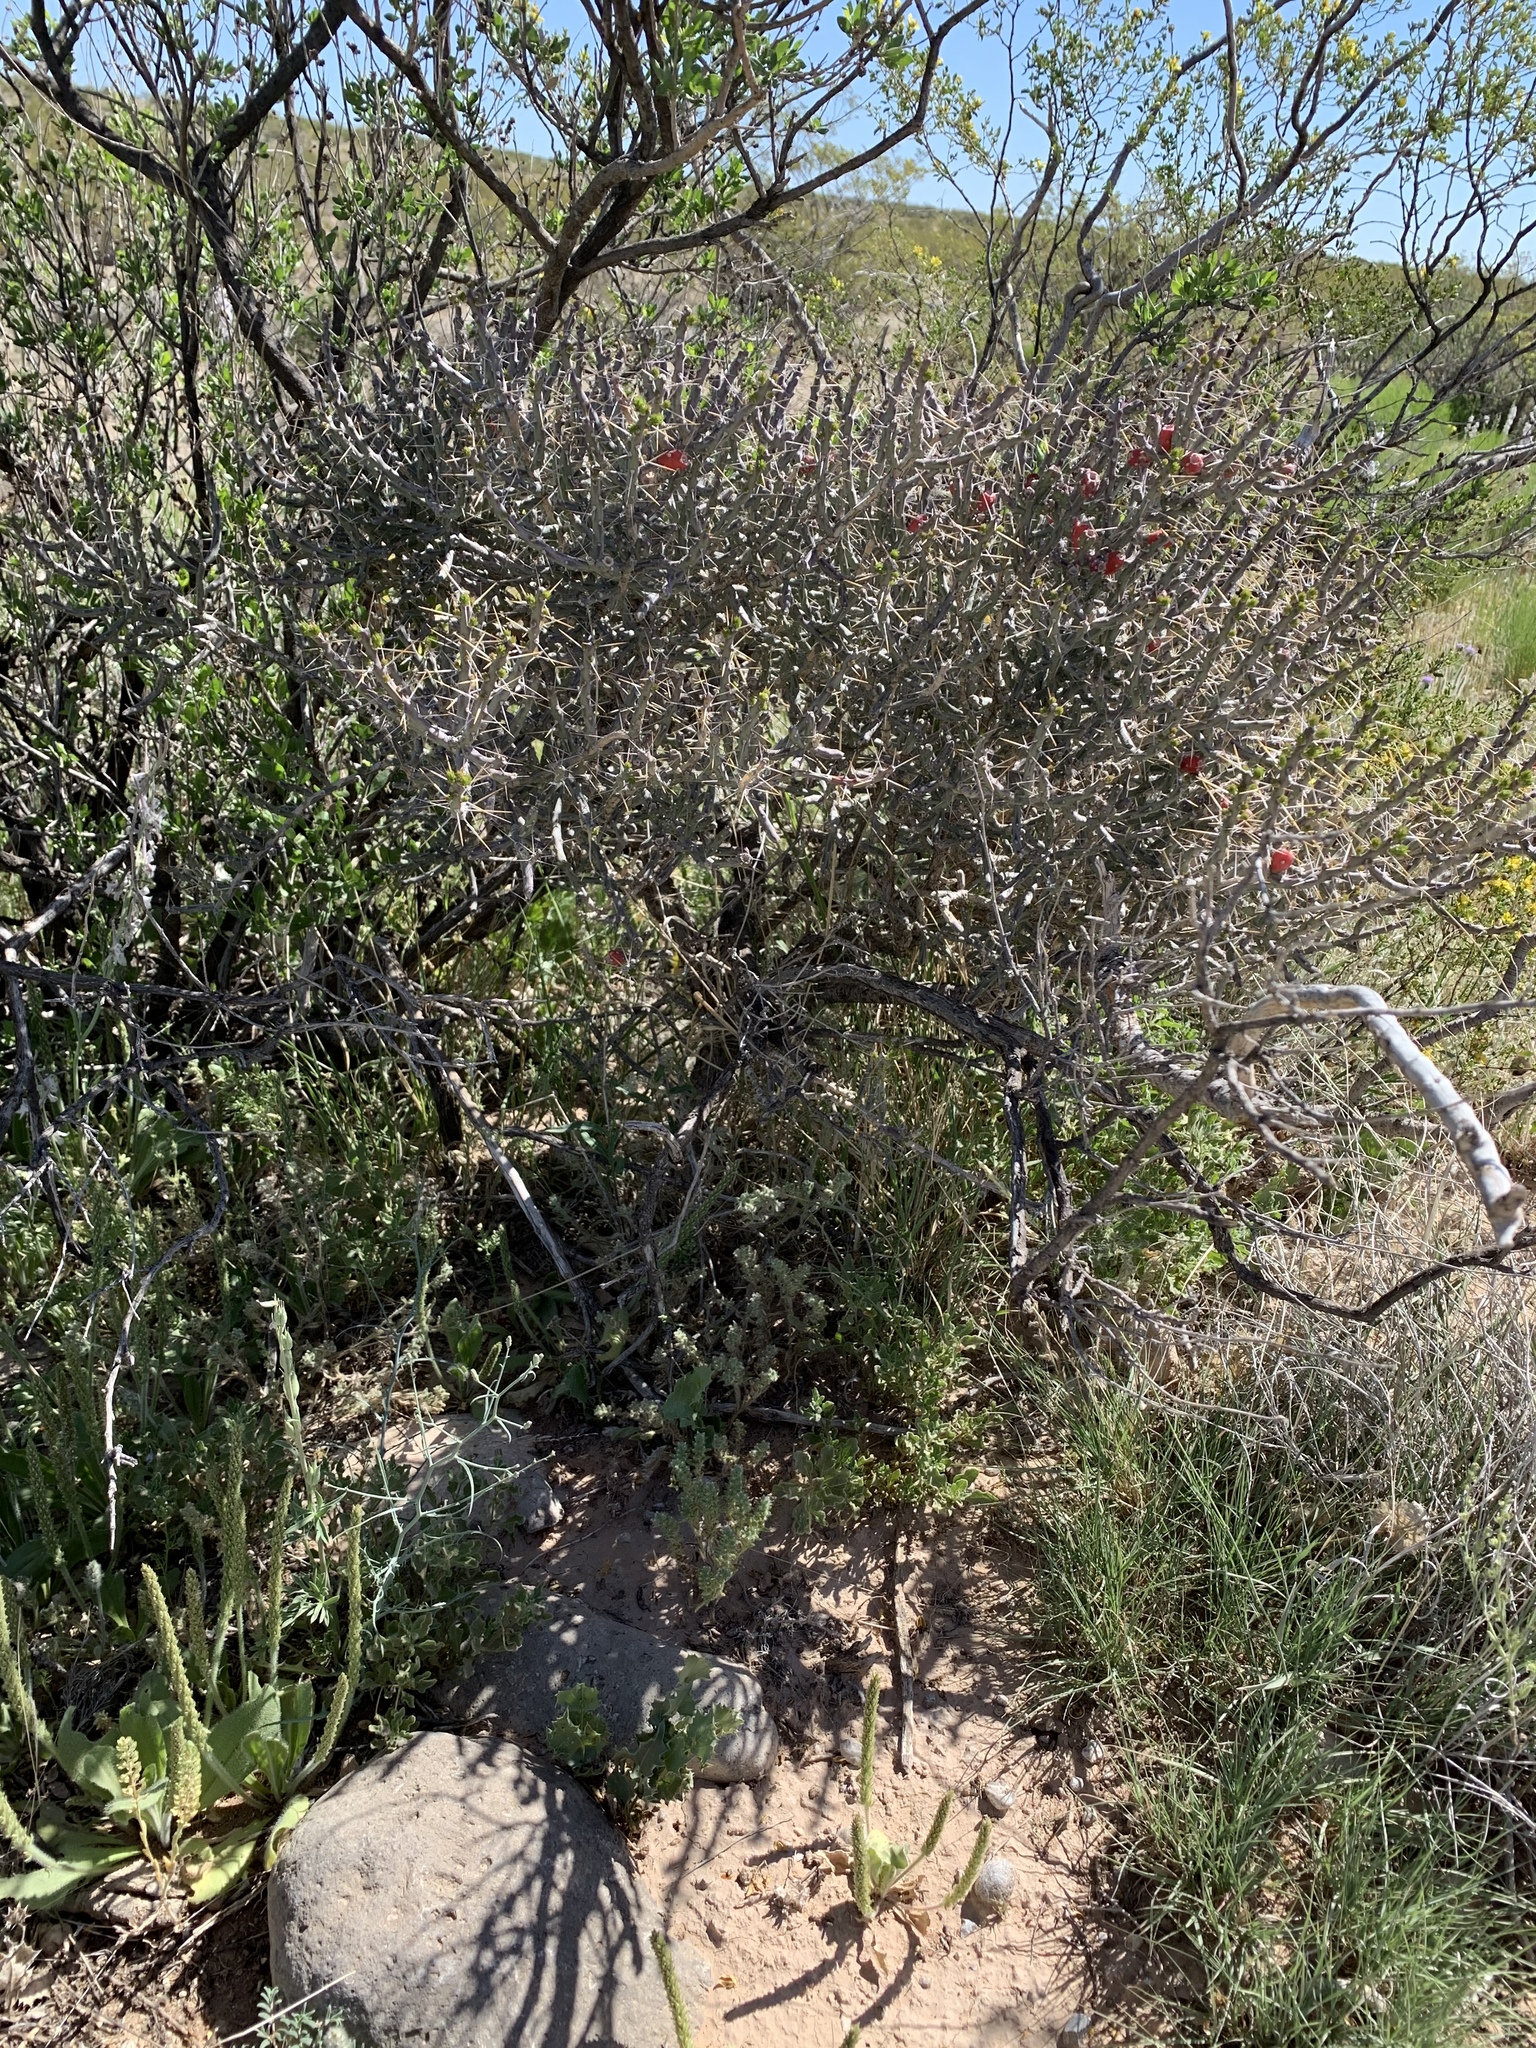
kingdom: Plantae
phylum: Tracheophyta
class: Magnoliopsida
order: Caryophyllales
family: Cactaceae
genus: Cylindropuntia
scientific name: Cylindropuntia leptocaulis
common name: Christmas cactus
